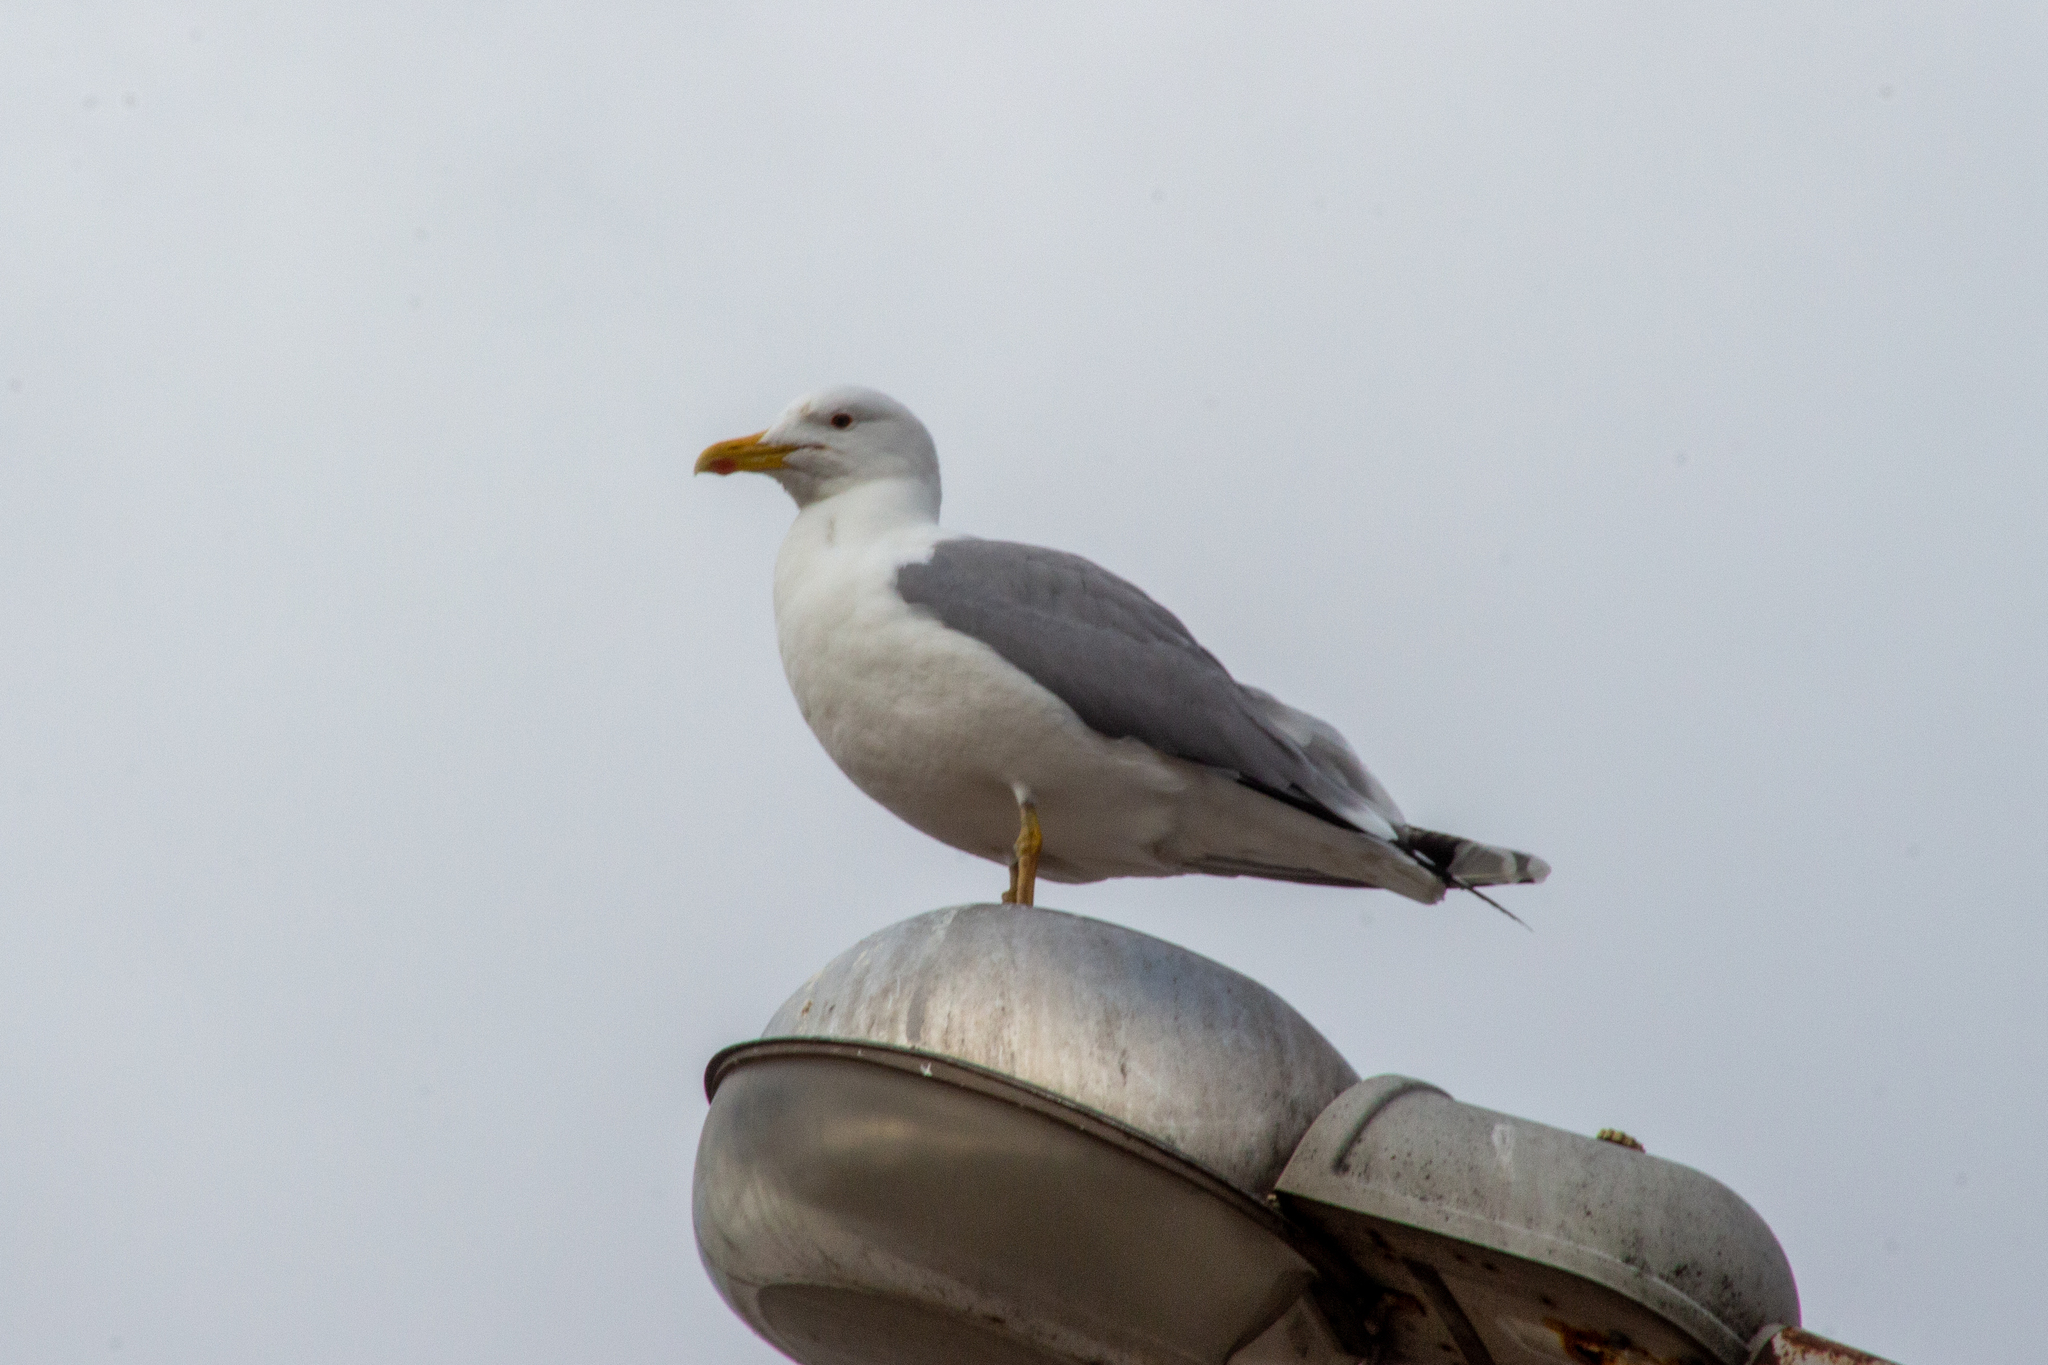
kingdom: Animalia
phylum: Chordata
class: Aves
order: Charadriiformes
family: Laridae
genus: Larus
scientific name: Larus cachinnans
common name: Caspian gull
